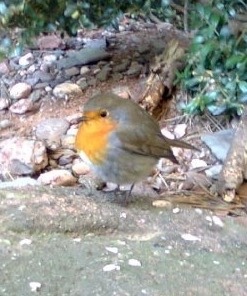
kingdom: Animalia
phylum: Chordata
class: Aves
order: Passeriformes
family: Muscicapidae
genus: Erithacus
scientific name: Erithacus rubecula
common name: European robin
